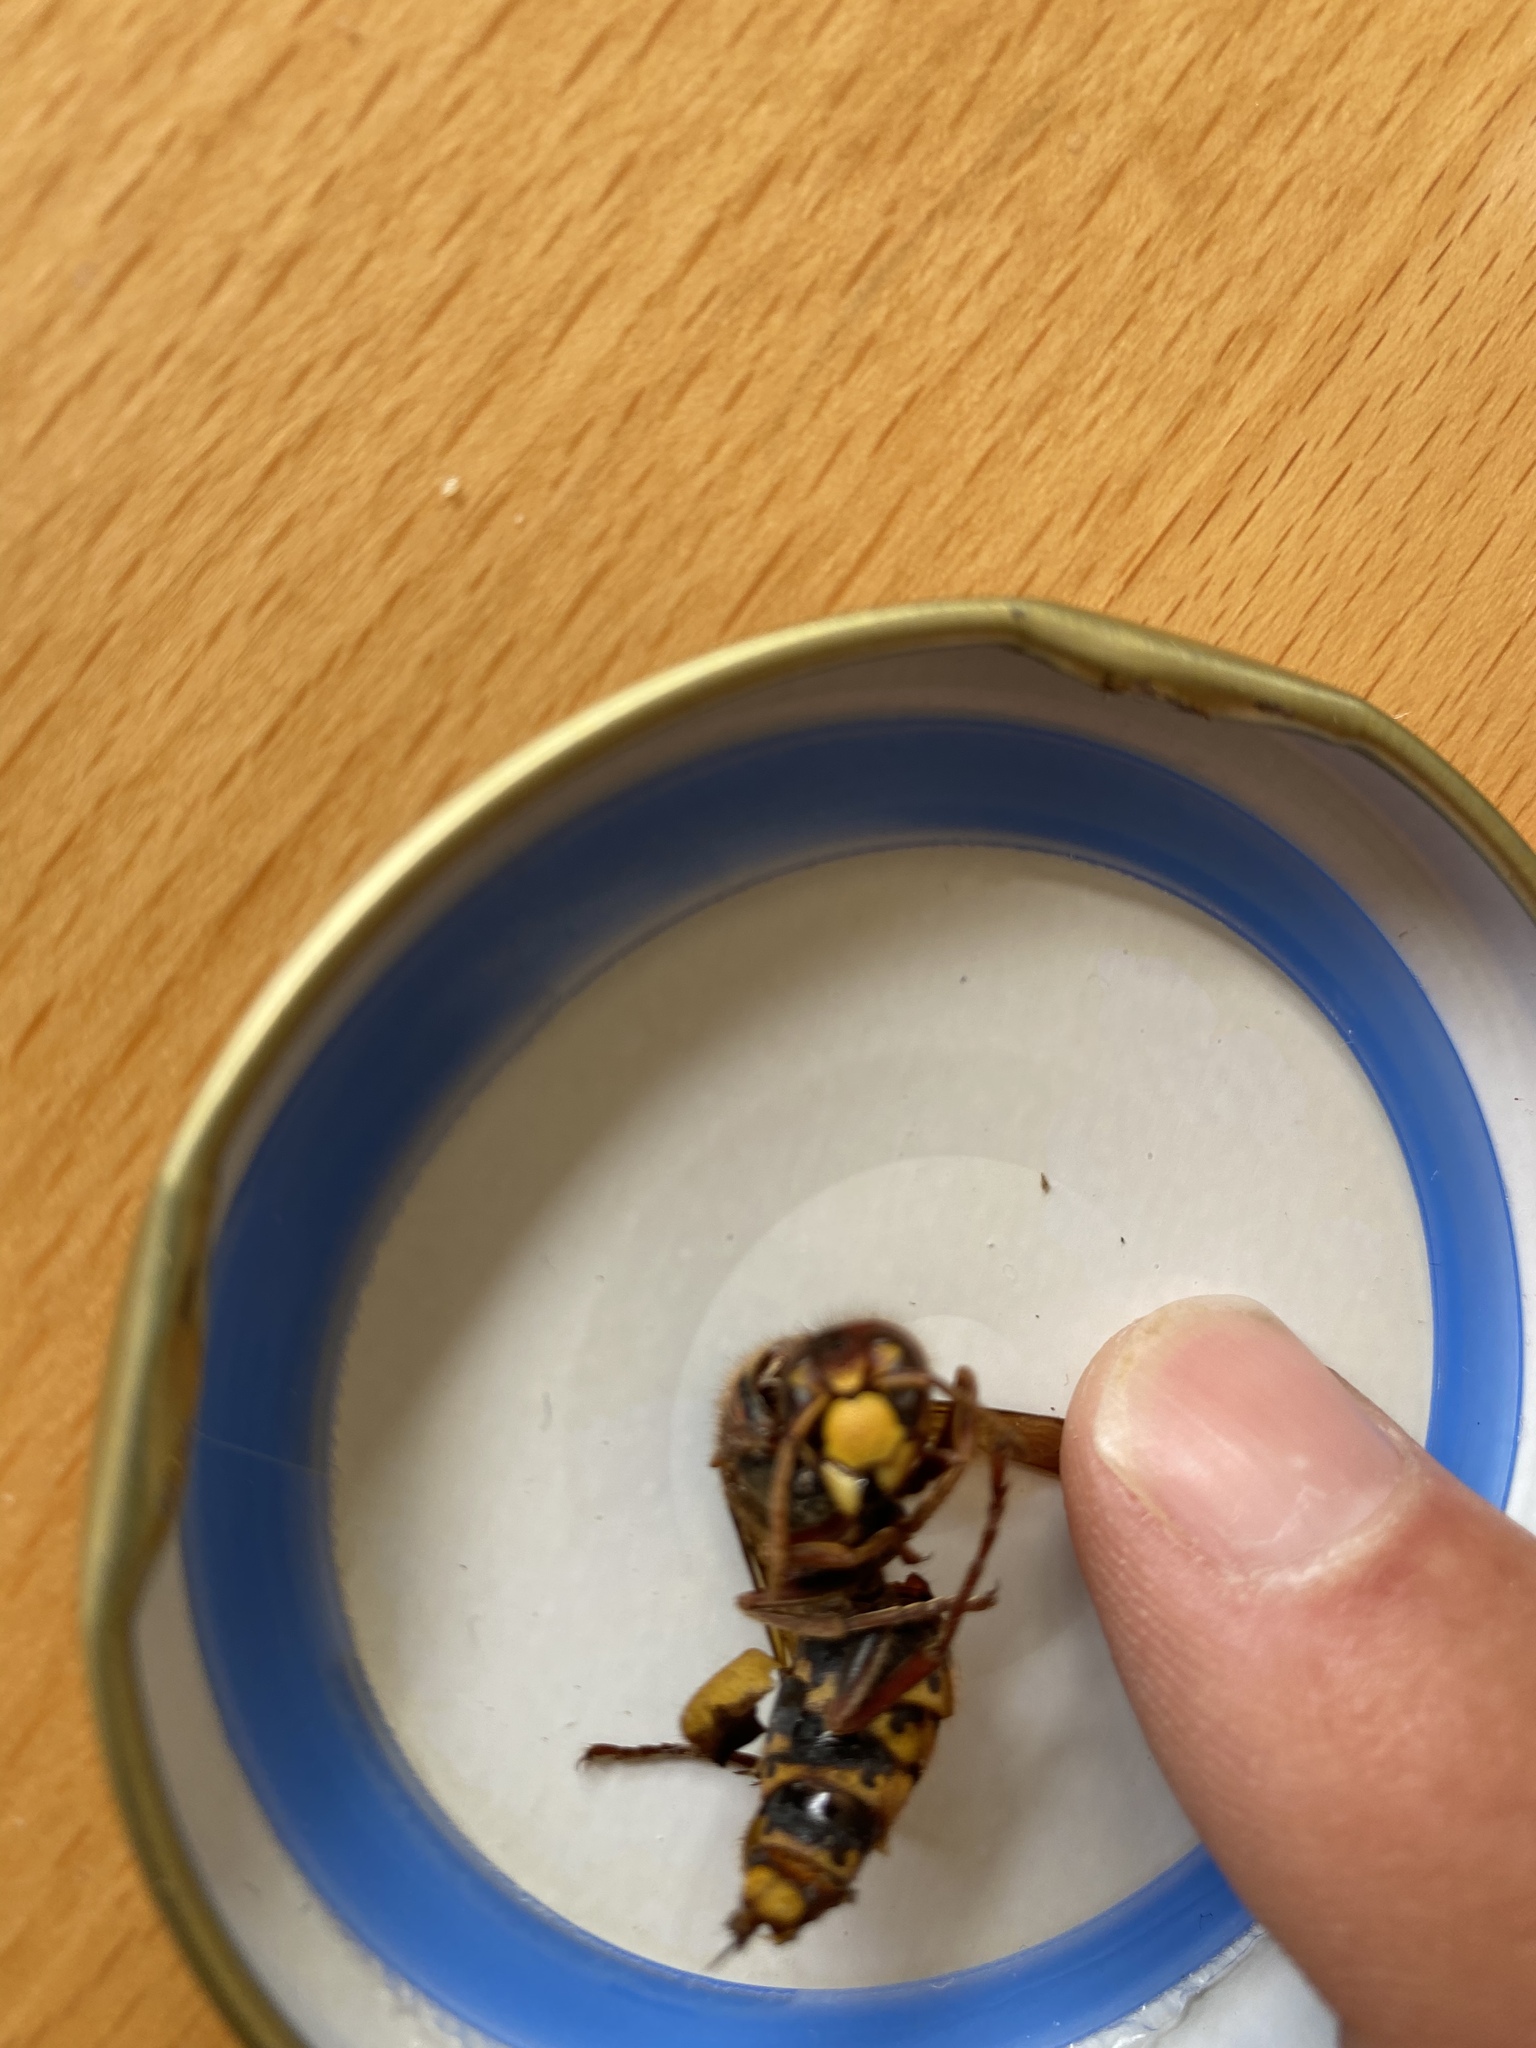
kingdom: Animalia
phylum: Arthropoda
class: Insecta
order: Hymenoptera
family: Vespidae
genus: Vespa
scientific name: Vespa crabro
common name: Hornet
